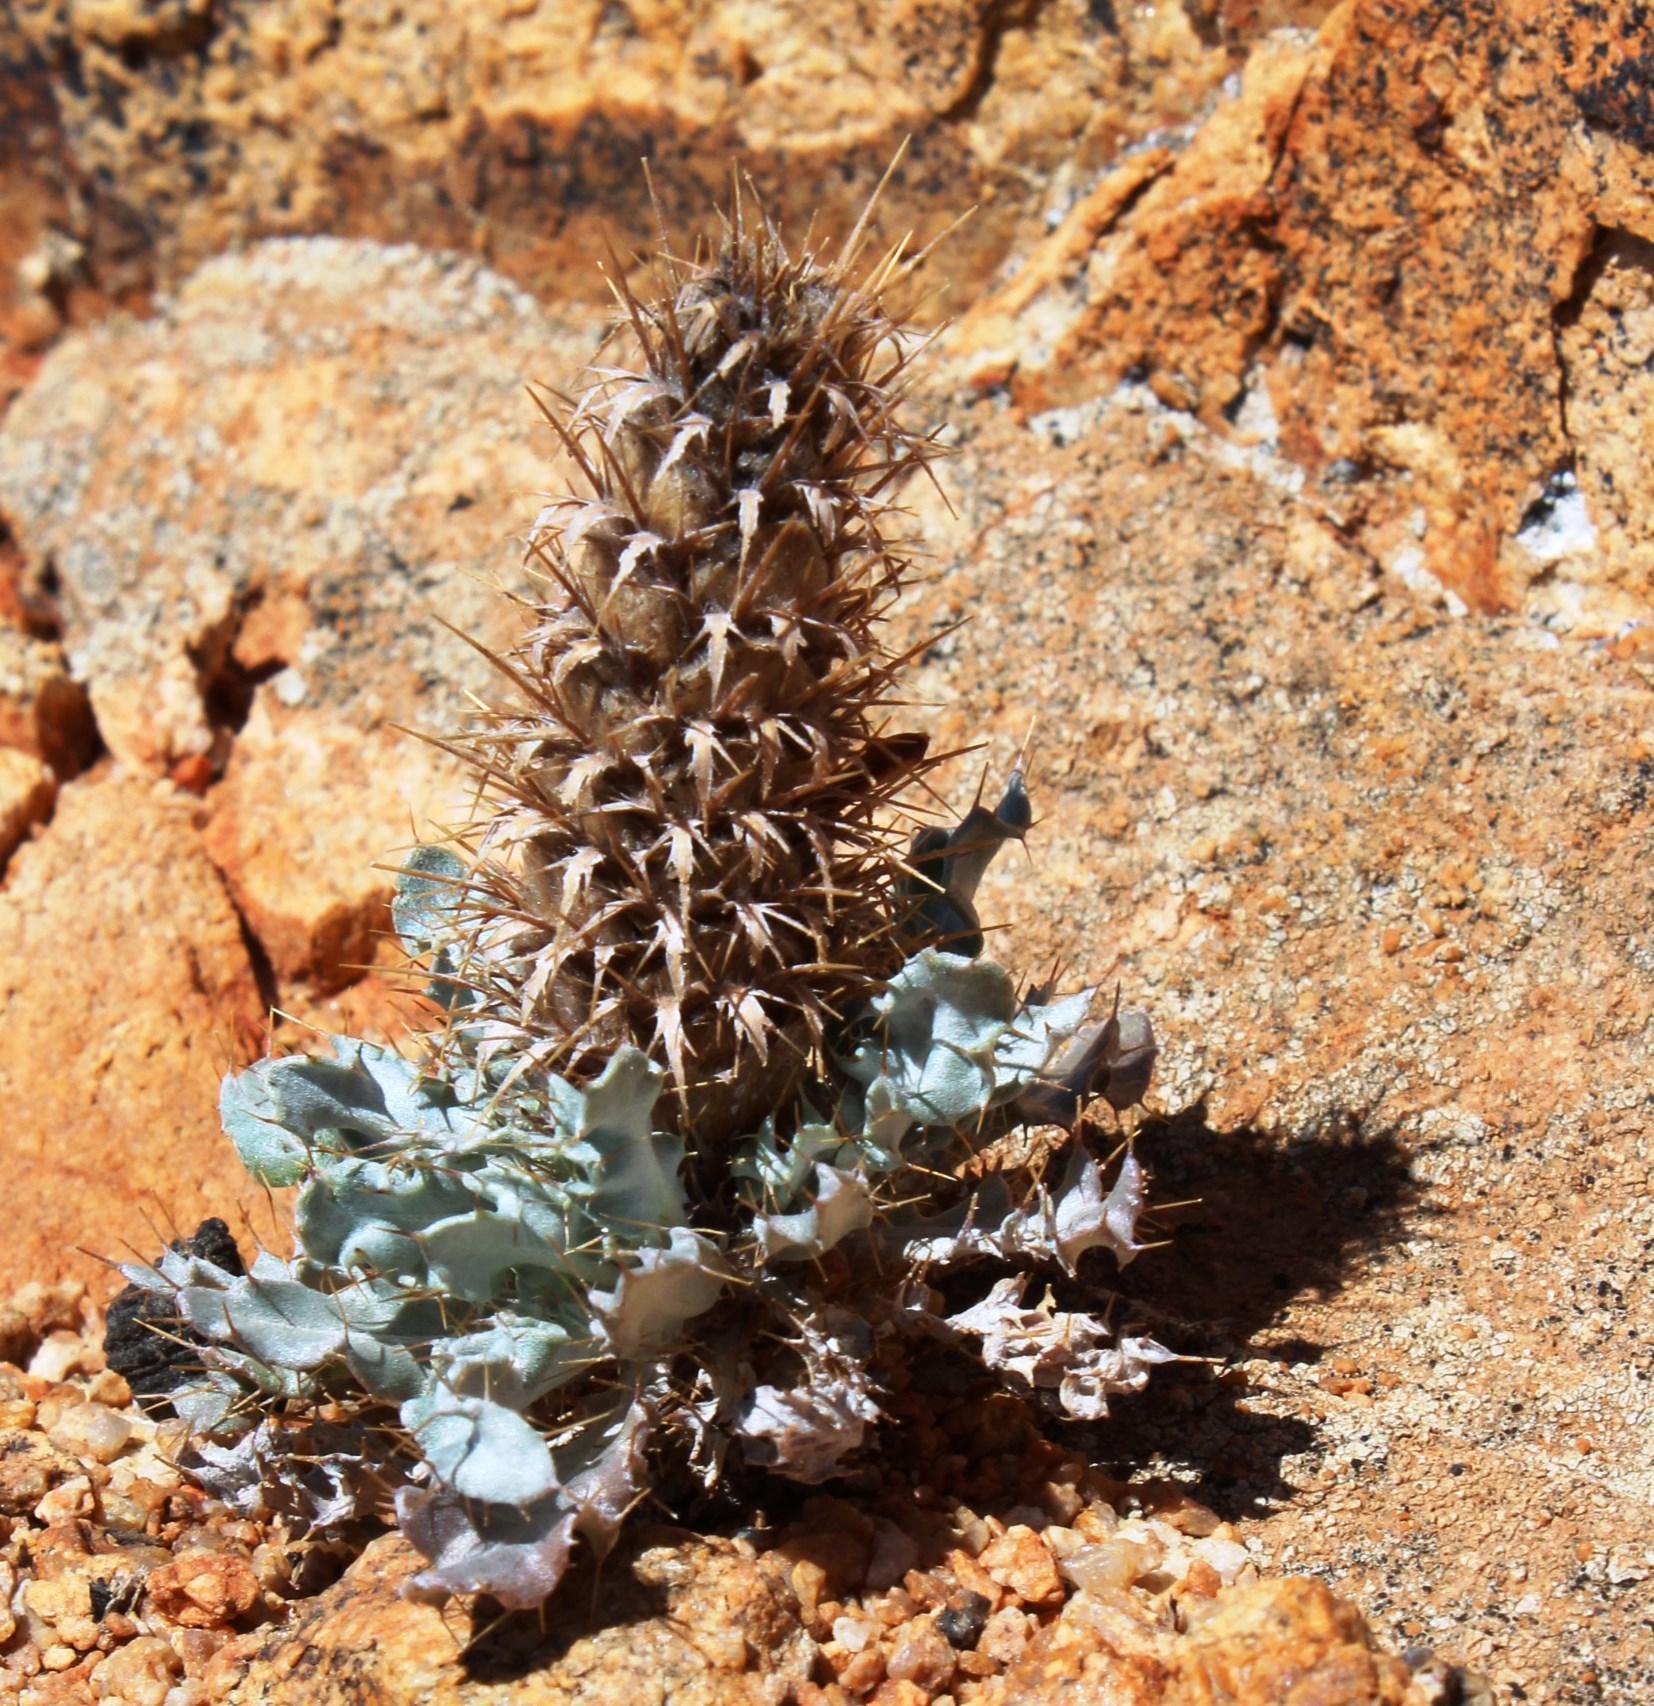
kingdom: Plantae
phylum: Tracheophyta
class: Magnoliopsida
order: Lamiales
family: Acanthaceae
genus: Acanthopsis
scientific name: Acanthopsis ludoviciana
